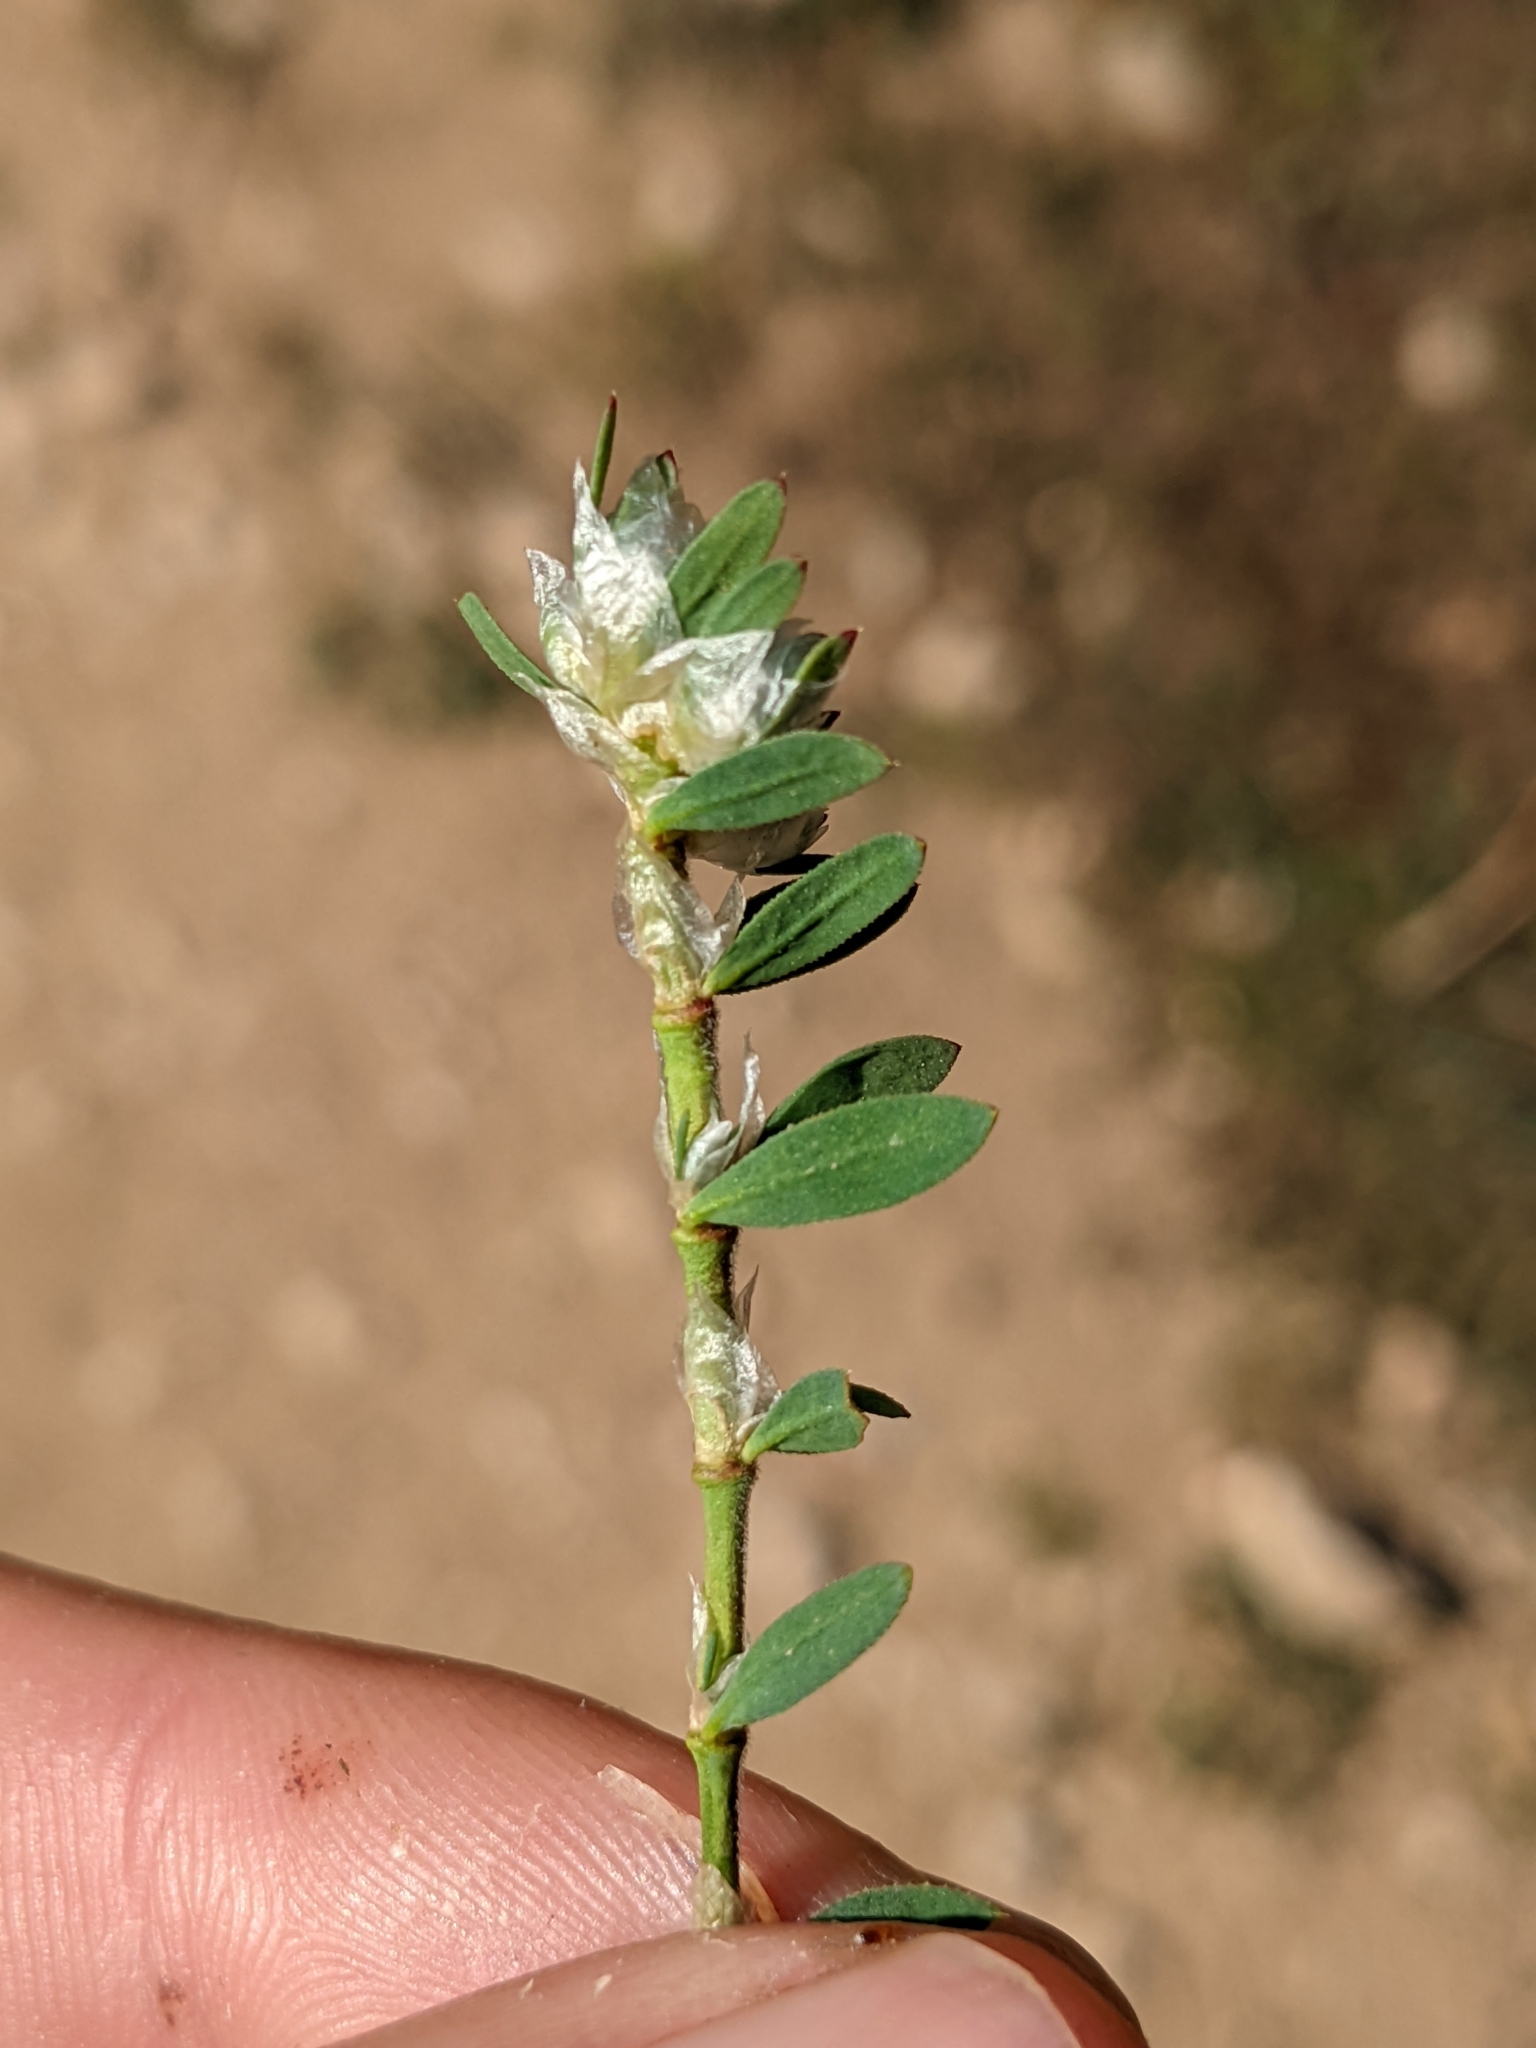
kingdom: Plantae
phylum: Tracheophyta
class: Magnoliopsida
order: Caryophyllales
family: Caryophyllaceae
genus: Paronychia
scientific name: Paronychia argentea
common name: Silver nailroot
